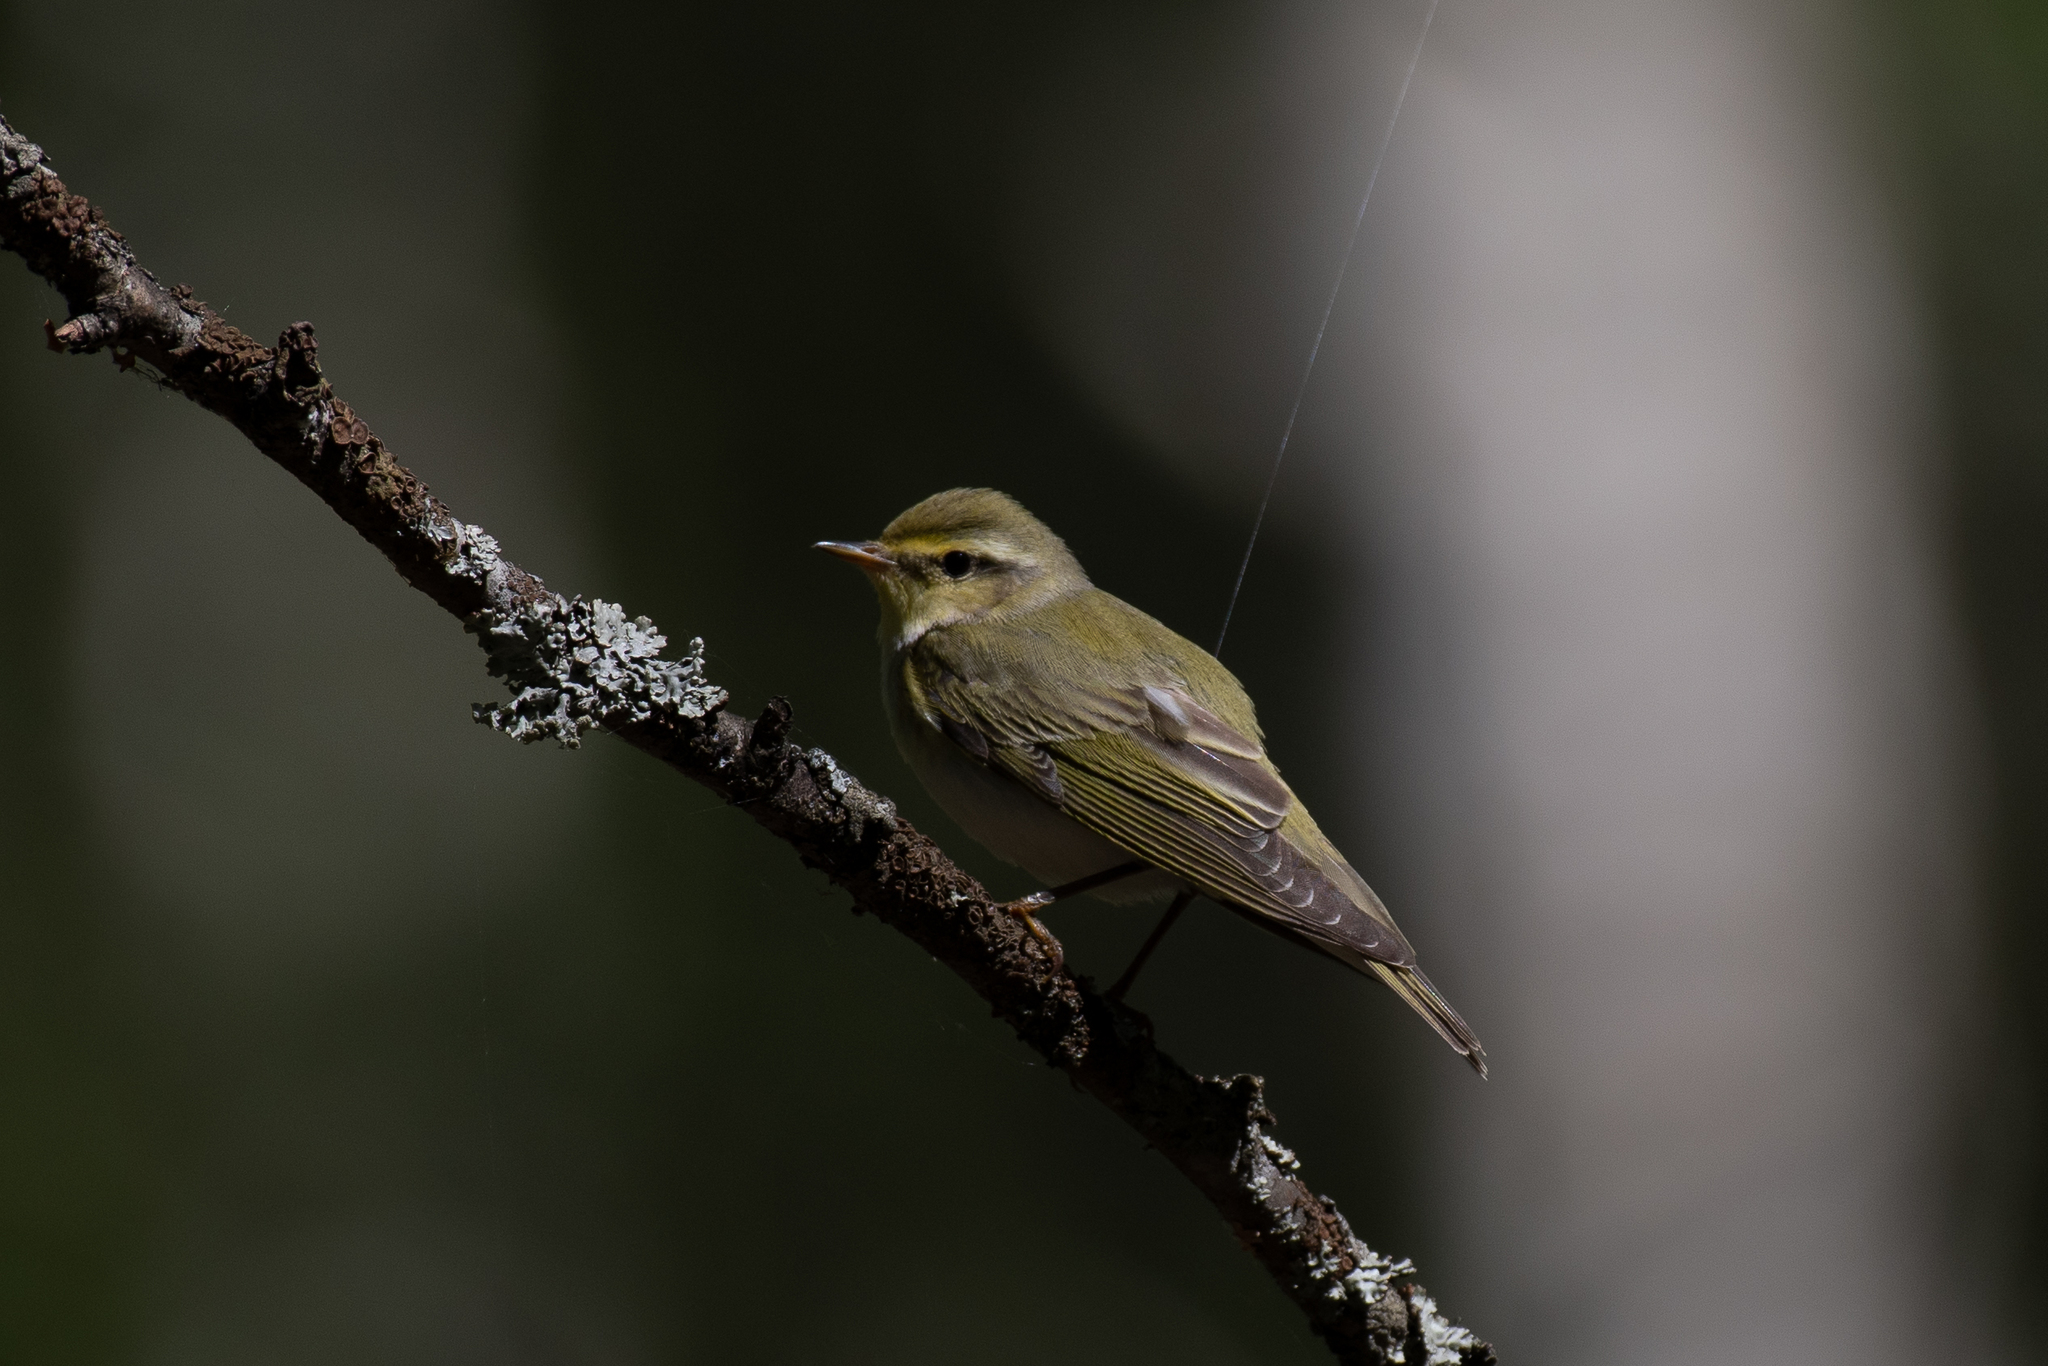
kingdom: Animalia
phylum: Chordata
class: Aves
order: Passeriformes
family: Phylloscopidae
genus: Phylloscopus
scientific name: Phylloscopus sibillatrix
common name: Wood warbler
